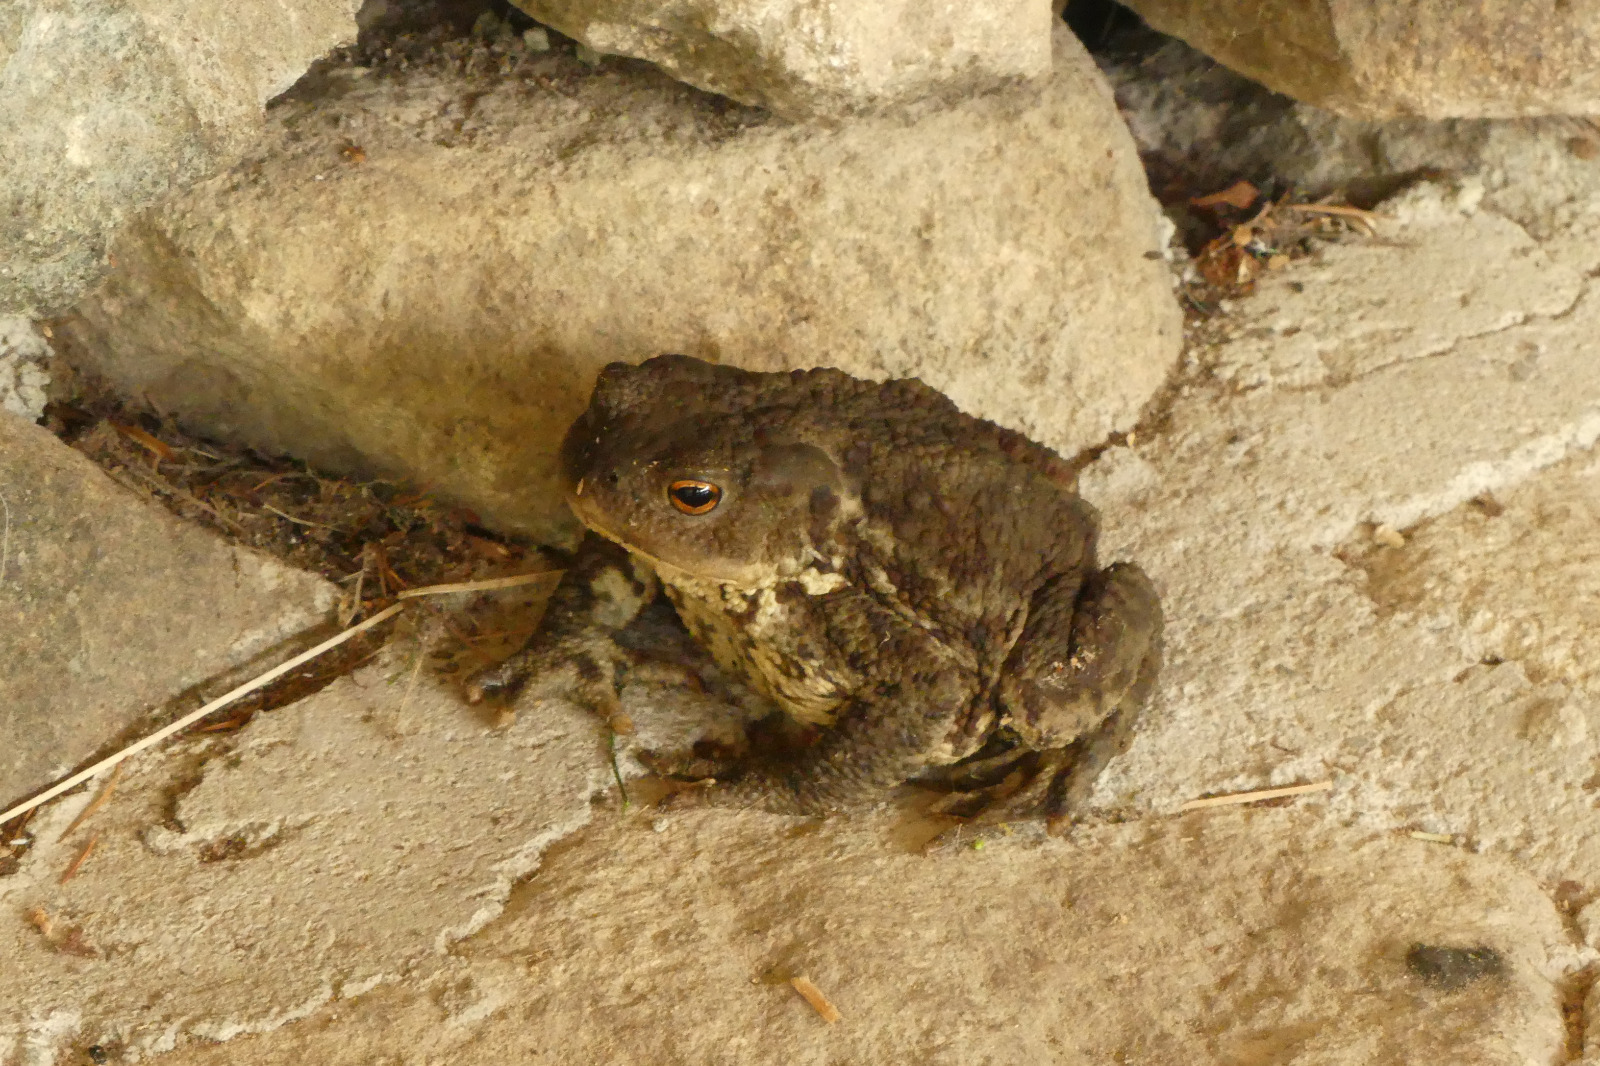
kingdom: Animalia
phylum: Chordata
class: Amphibia
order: Anura
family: Bufonidae
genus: Bufo
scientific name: Bufo bufo
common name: Common toad
